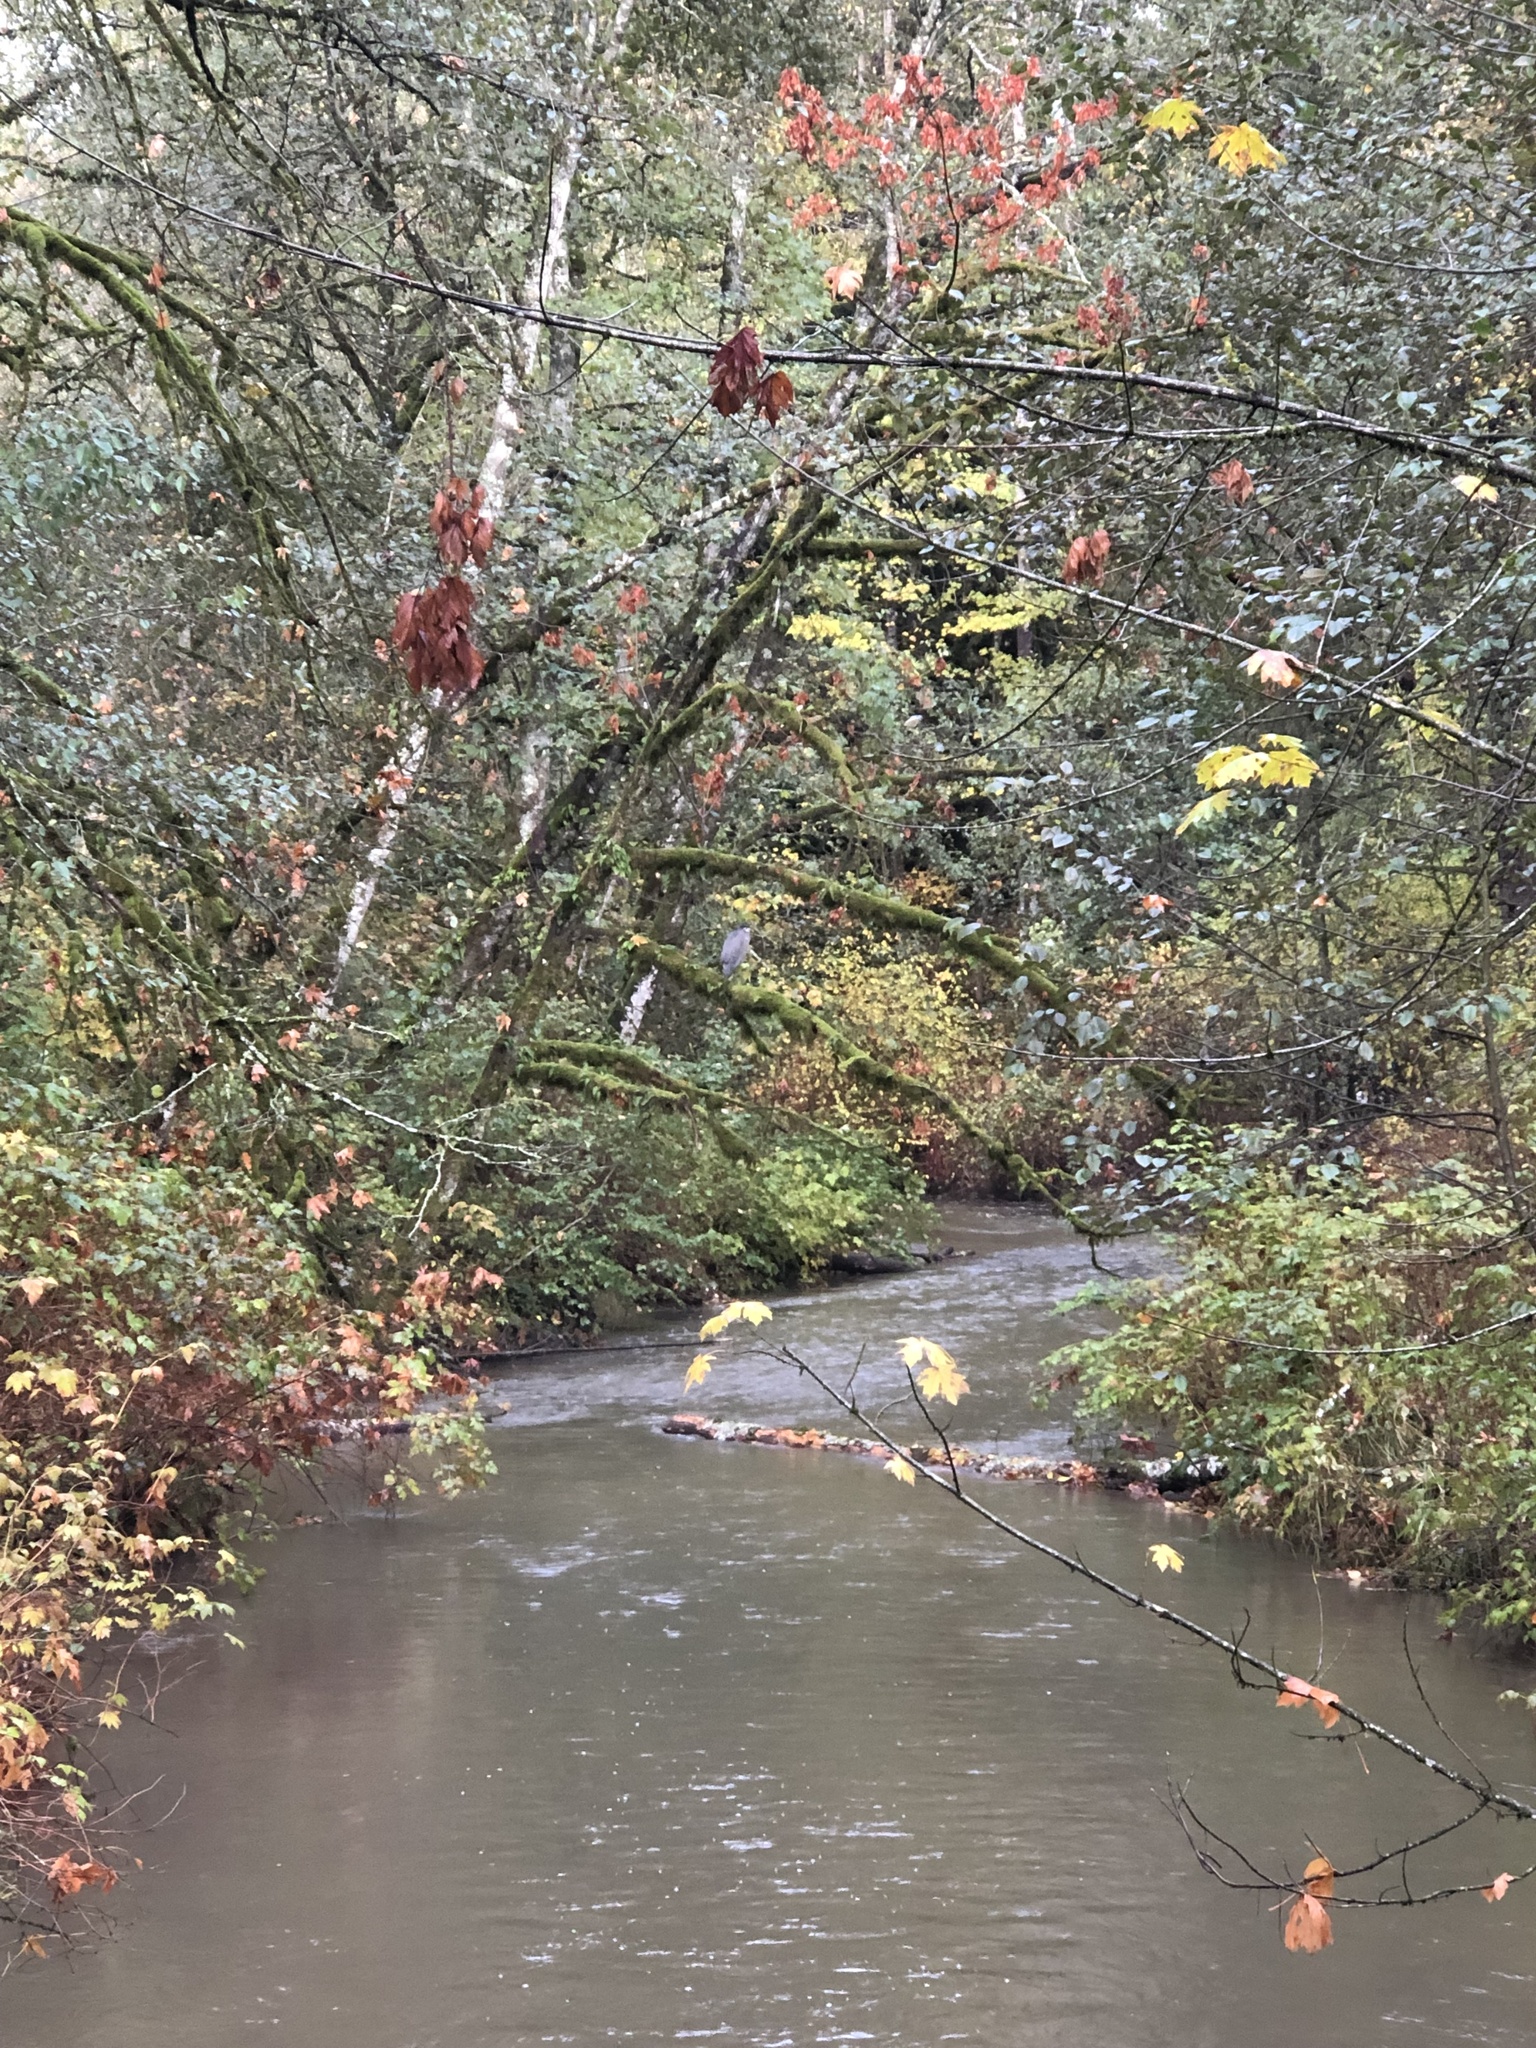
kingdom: Animalia
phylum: Chordata
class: Aves
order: Pelecaniformes
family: Ardeidae
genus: Ardea
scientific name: Ardea herodias
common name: Great blue heron
